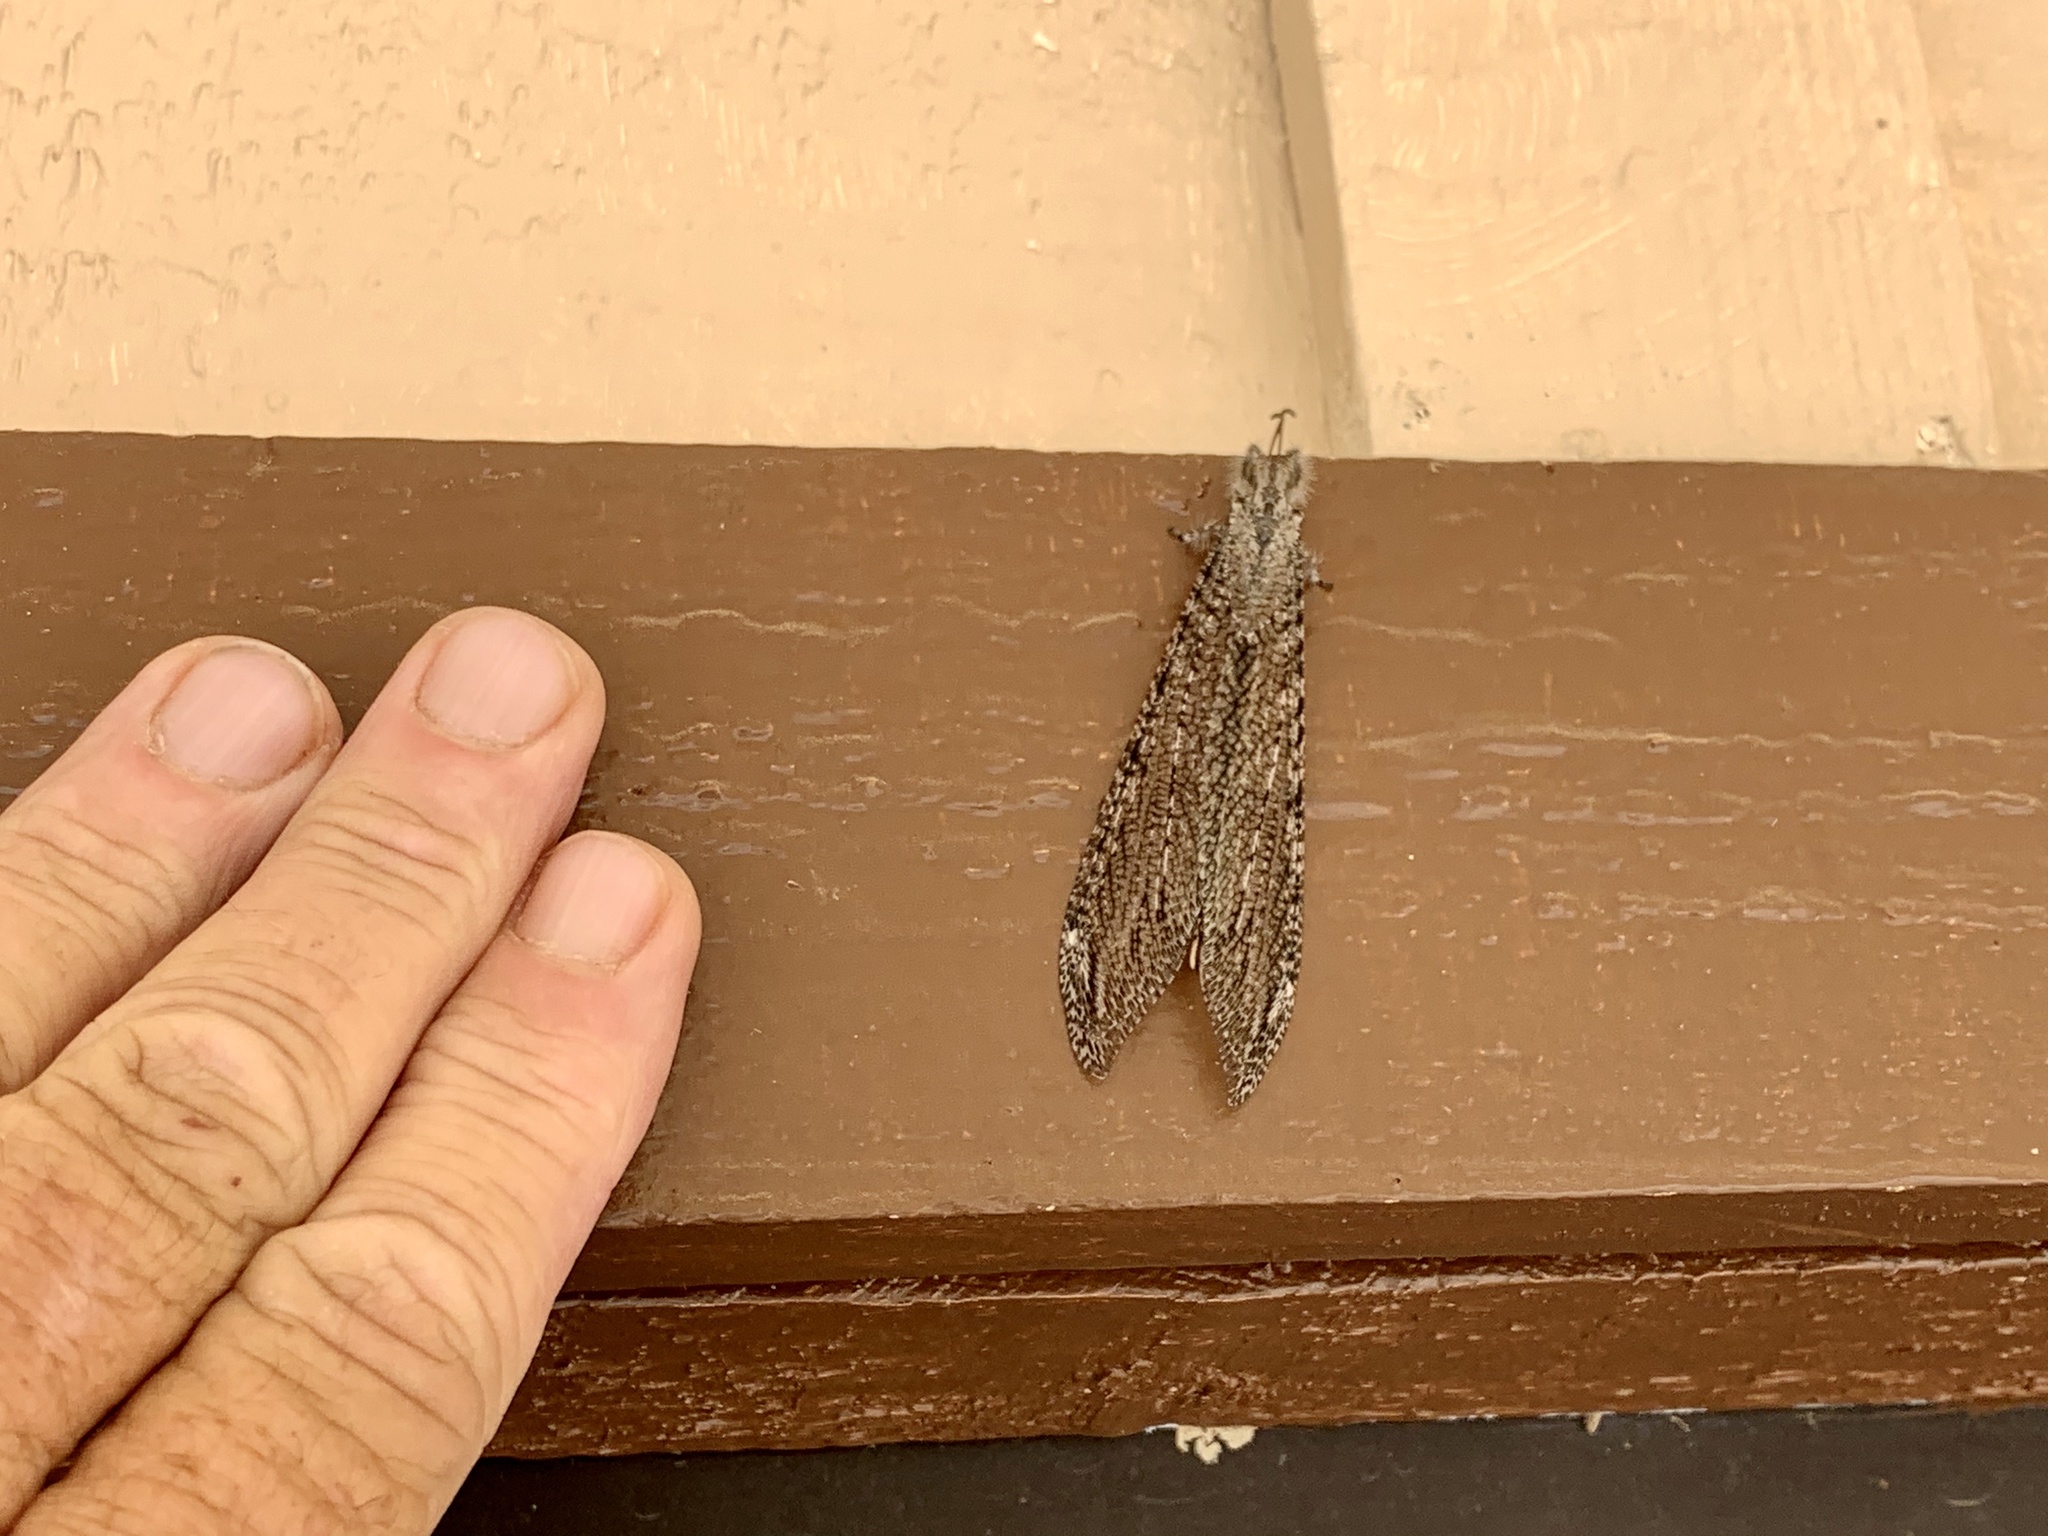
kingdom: Animalia
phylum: Arthropoda
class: Insecta
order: Neuroptera
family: Myrmeleontidae
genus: Vella
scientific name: Vella fallax
